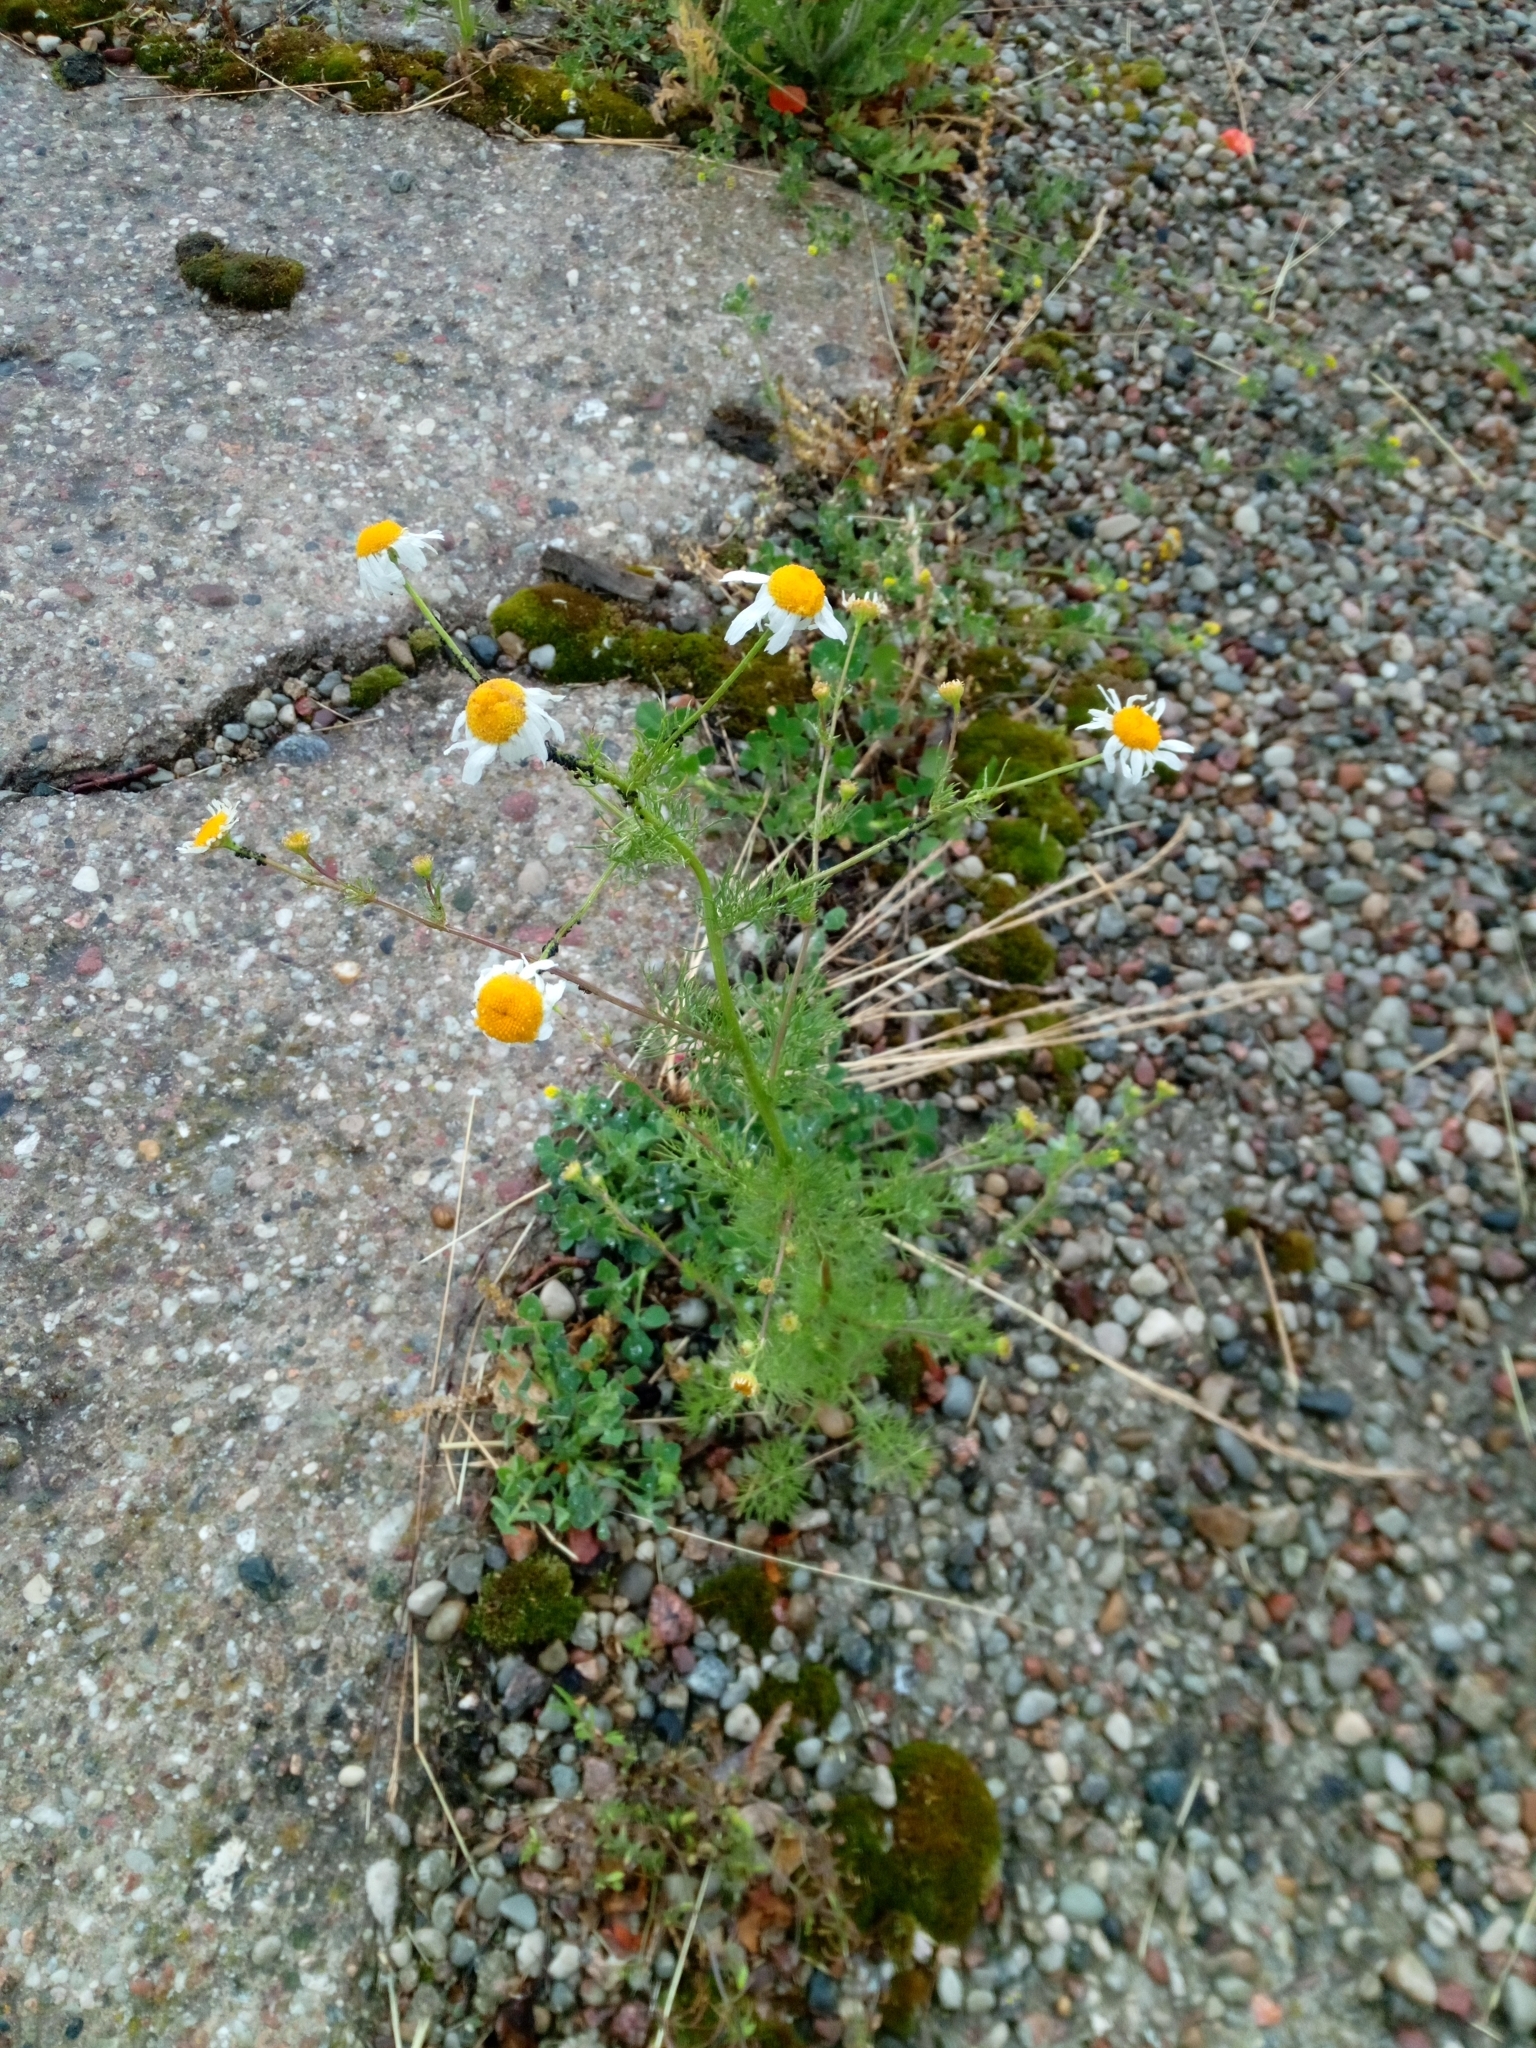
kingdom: Plantae
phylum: Tracheophyta
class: Magnoliopsida
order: Asterales
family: Asteraceae
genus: Tripleurospermum
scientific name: Tripleurospermum inodorum
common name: Scentless mayweed
